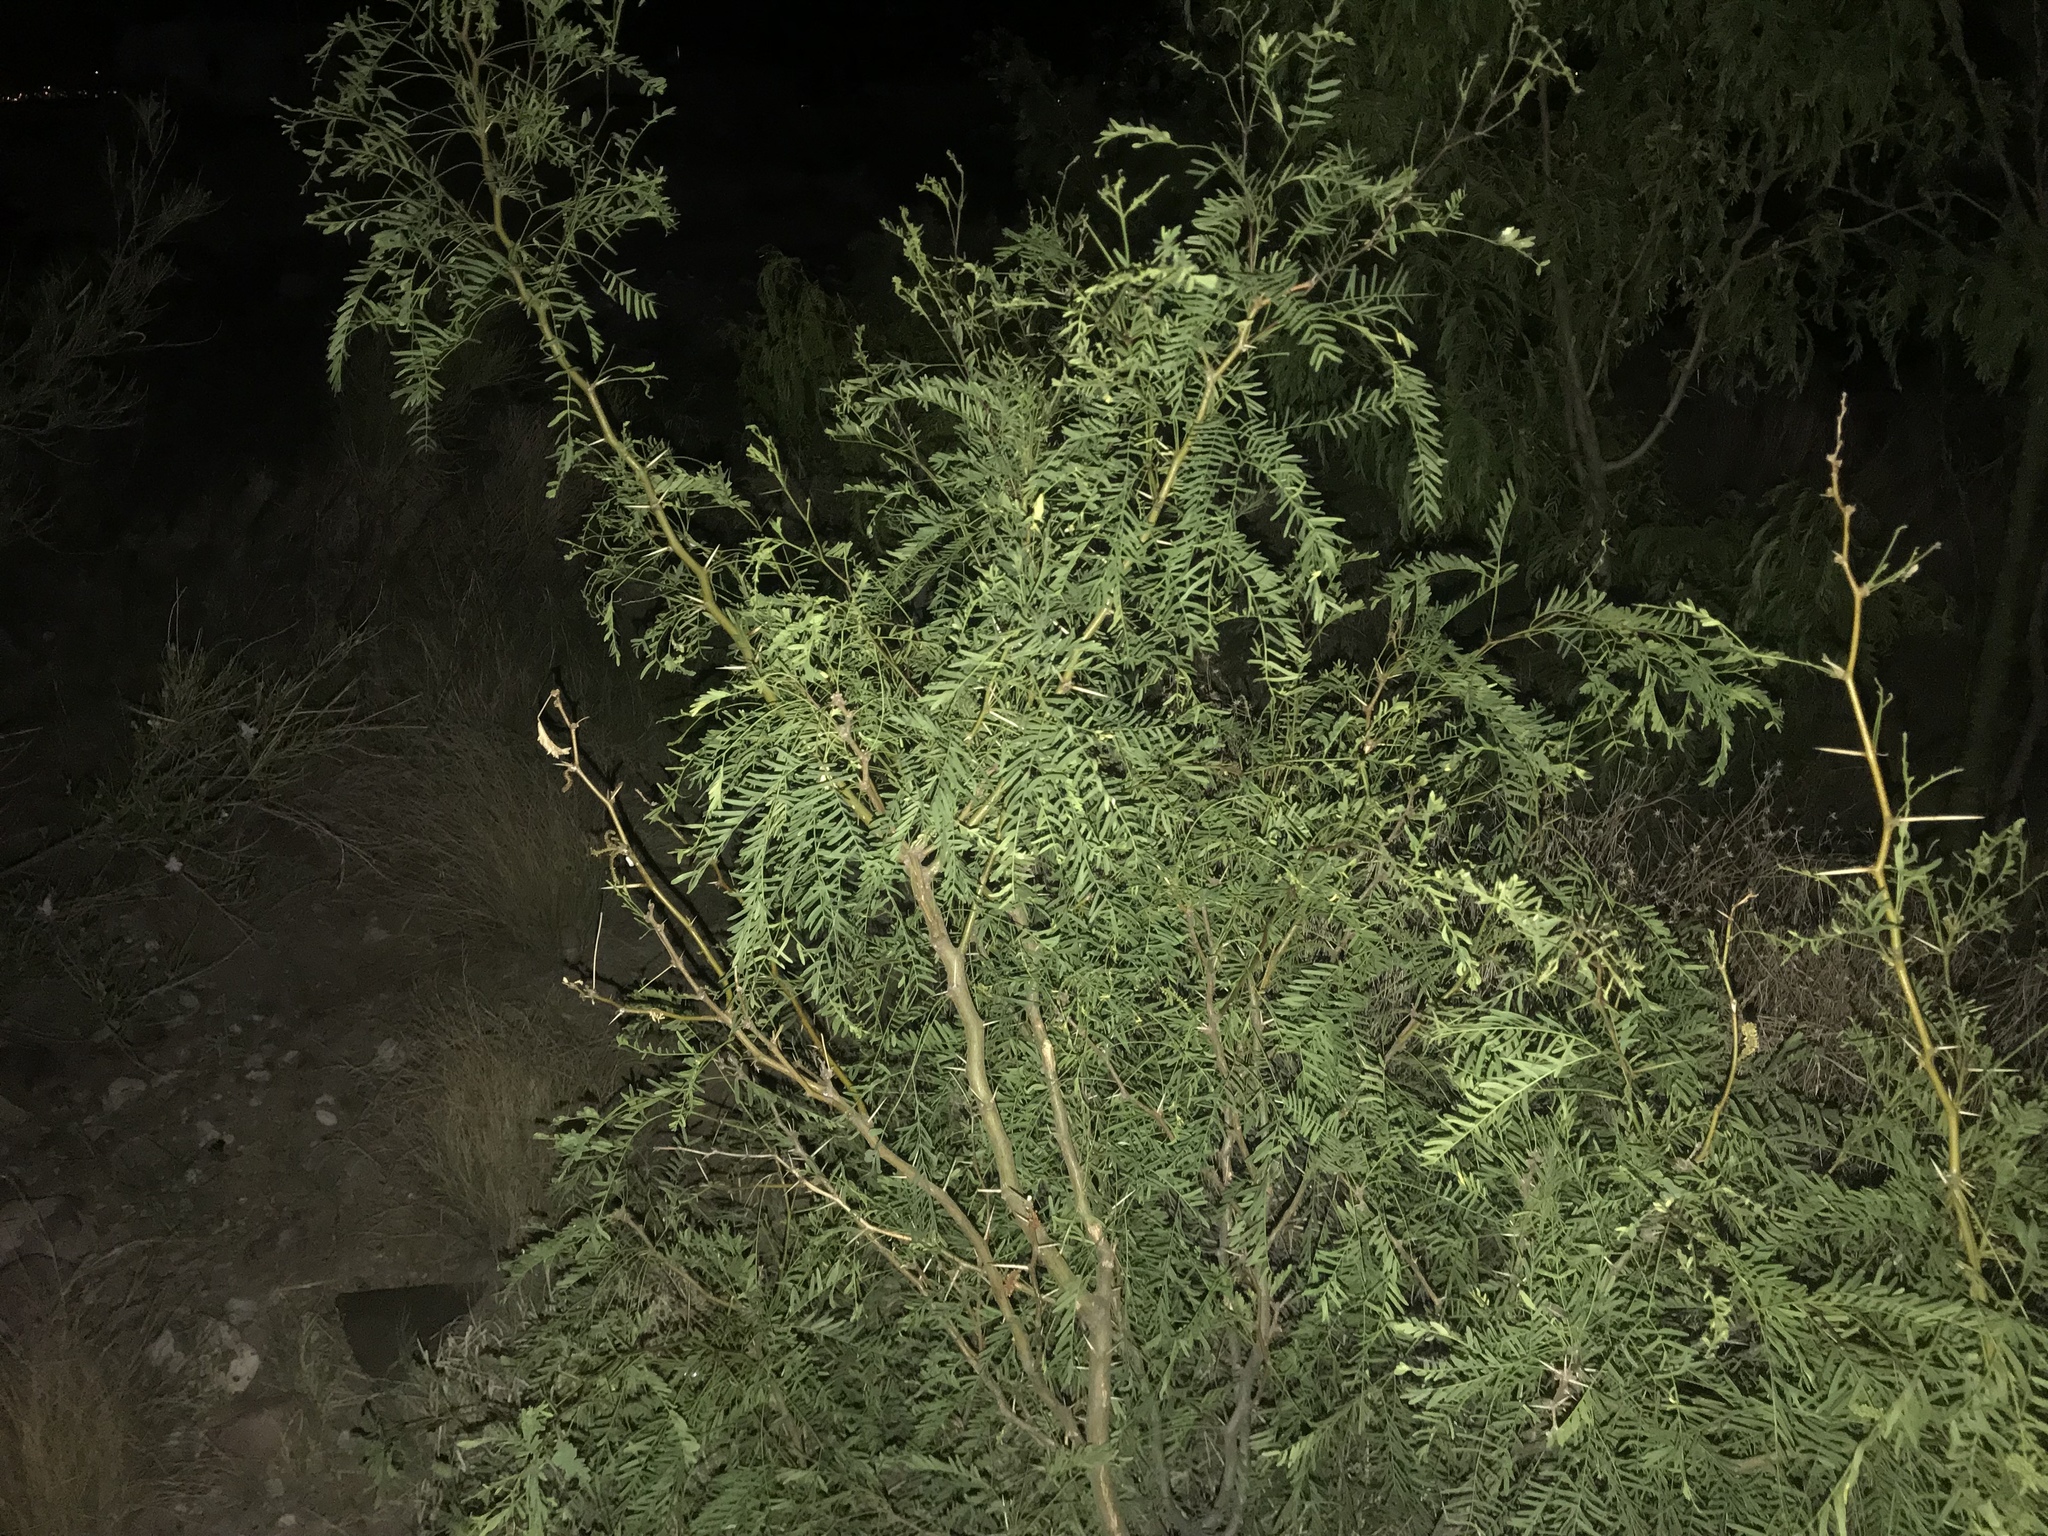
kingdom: Plantae
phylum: Tracheophyta
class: Magnoliopsida
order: Fabales
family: Fabaceae
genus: Prosopis
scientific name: Prosopis glandulosa
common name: Honey mesquite
